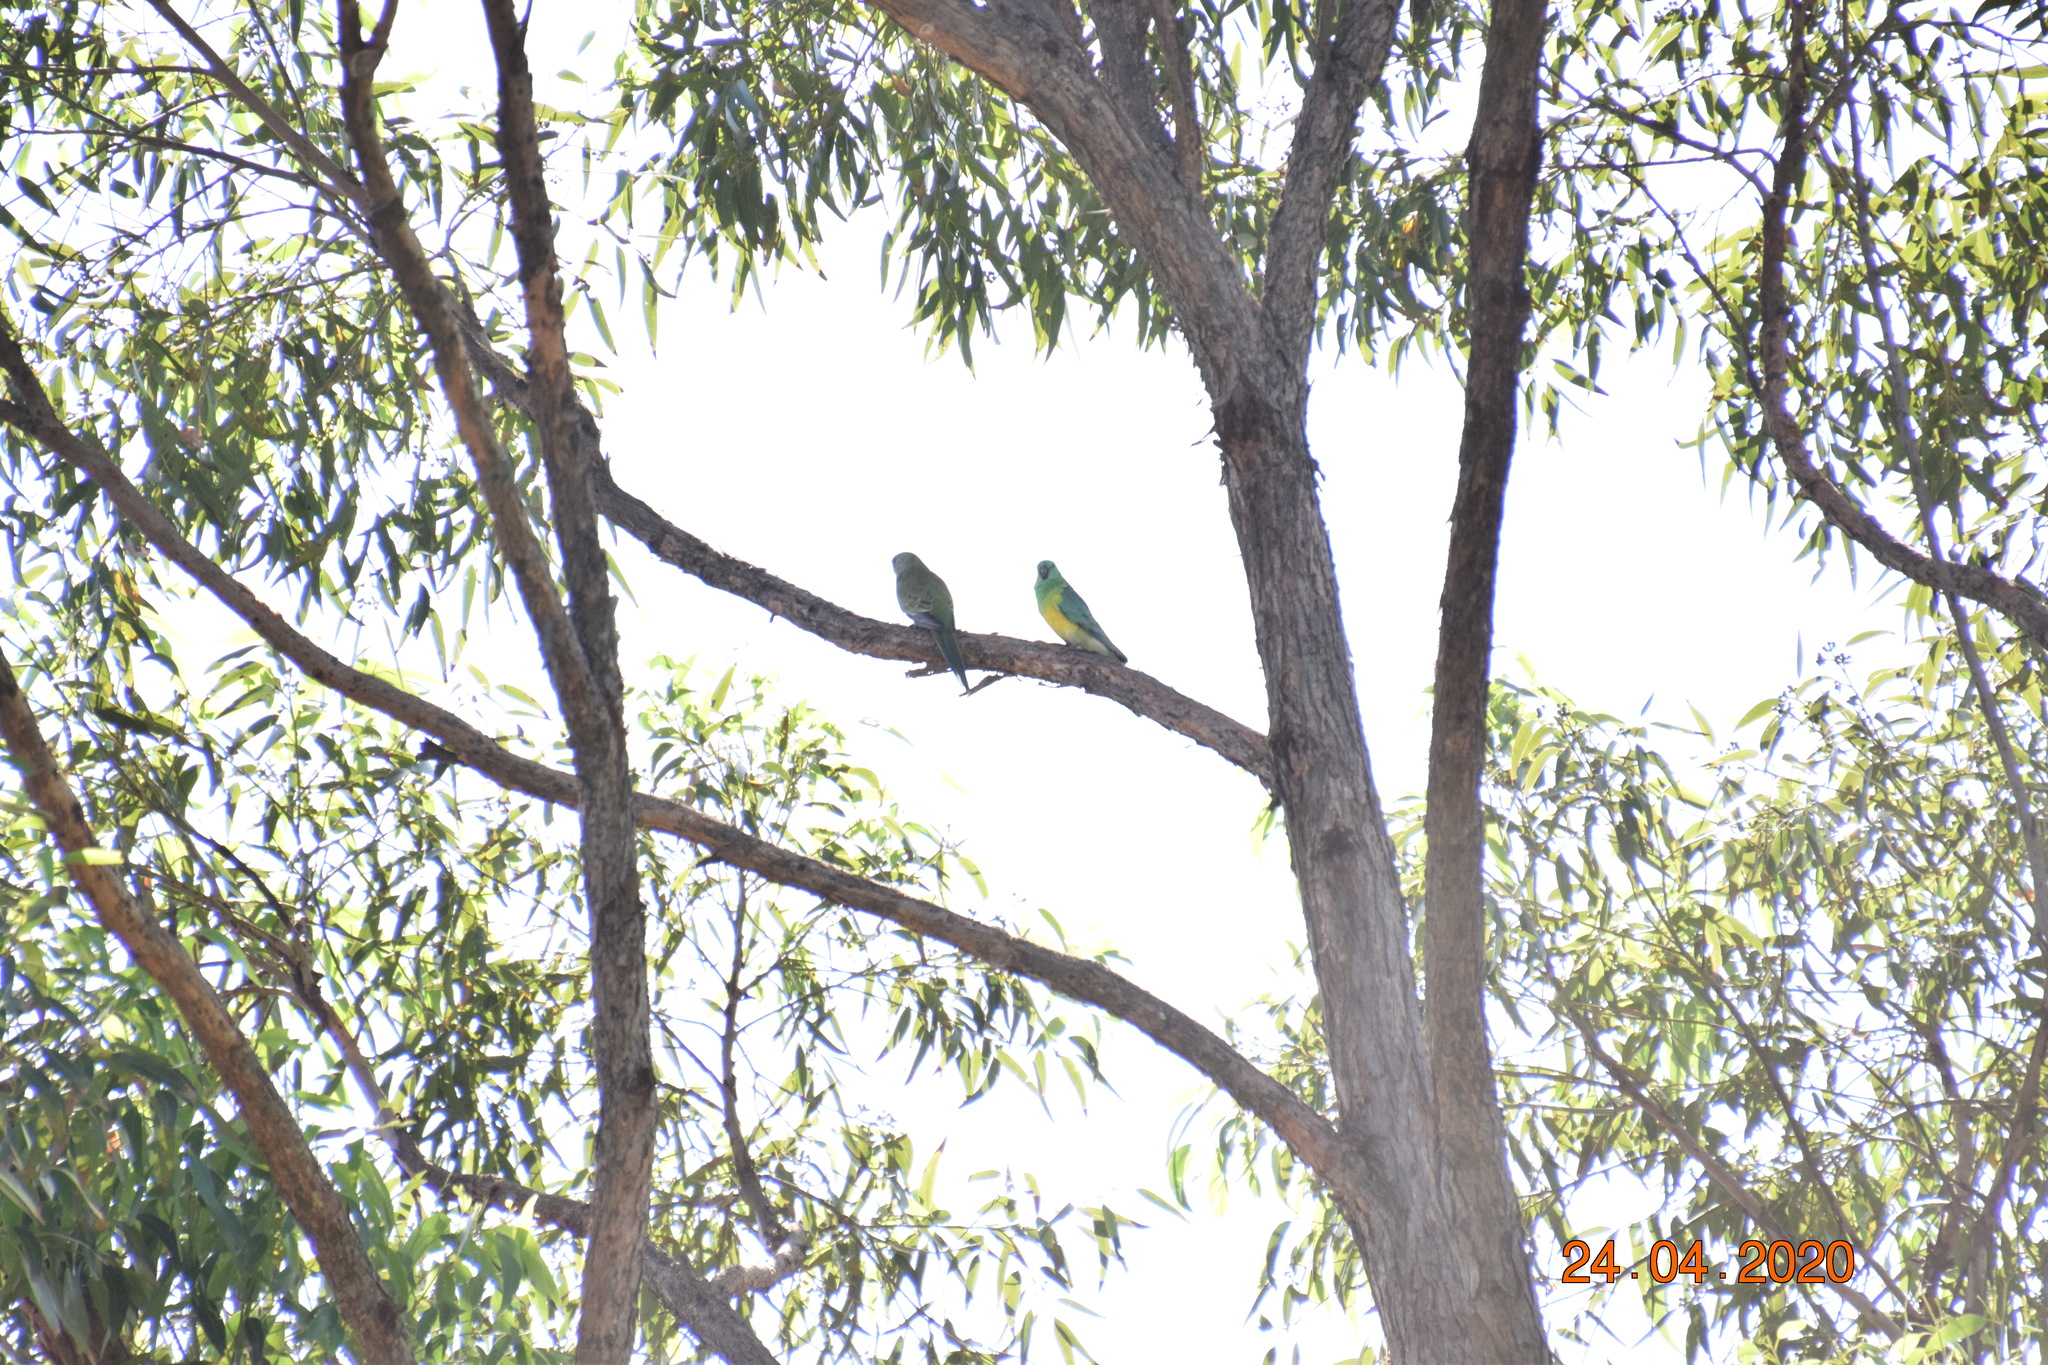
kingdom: Animalia
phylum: Chordata
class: Aves
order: Psittaciformes
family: Psittacidae
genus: Psephotus
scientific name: Psephotus haematonotus
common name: Red-rumped parrot
